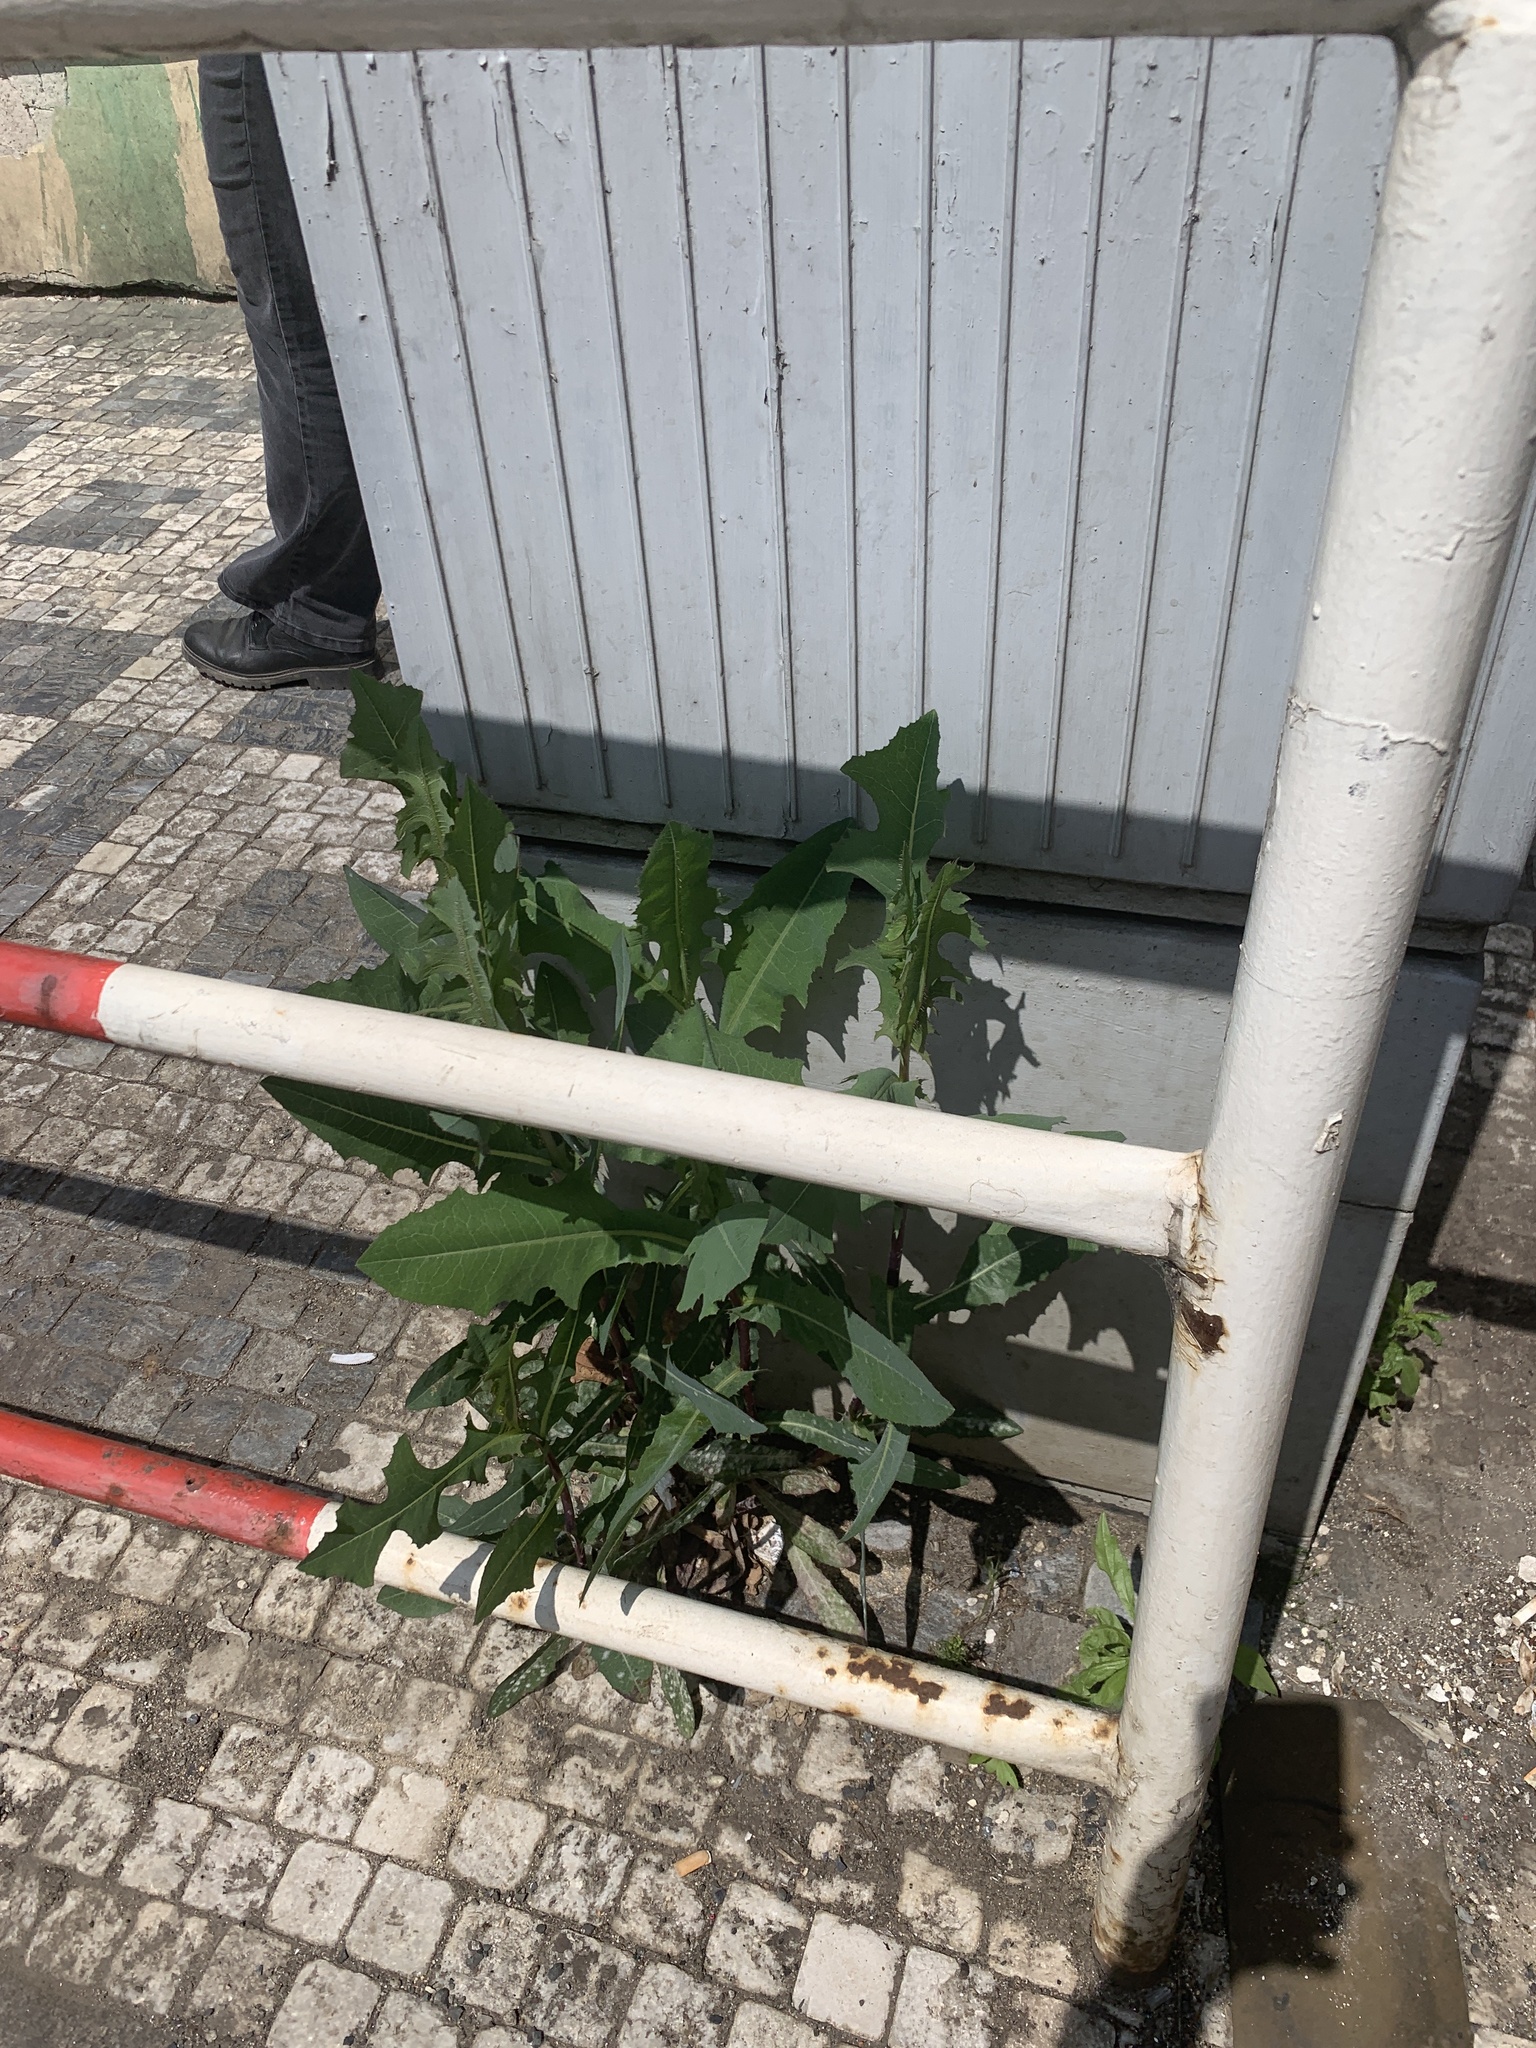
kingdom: Plantae
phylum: Tracheophyta
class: Magnoliopsida
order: Asterales
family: Asteraceae
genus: Lactuca
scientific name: Lactuca serriola
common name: Prickly lettuce
